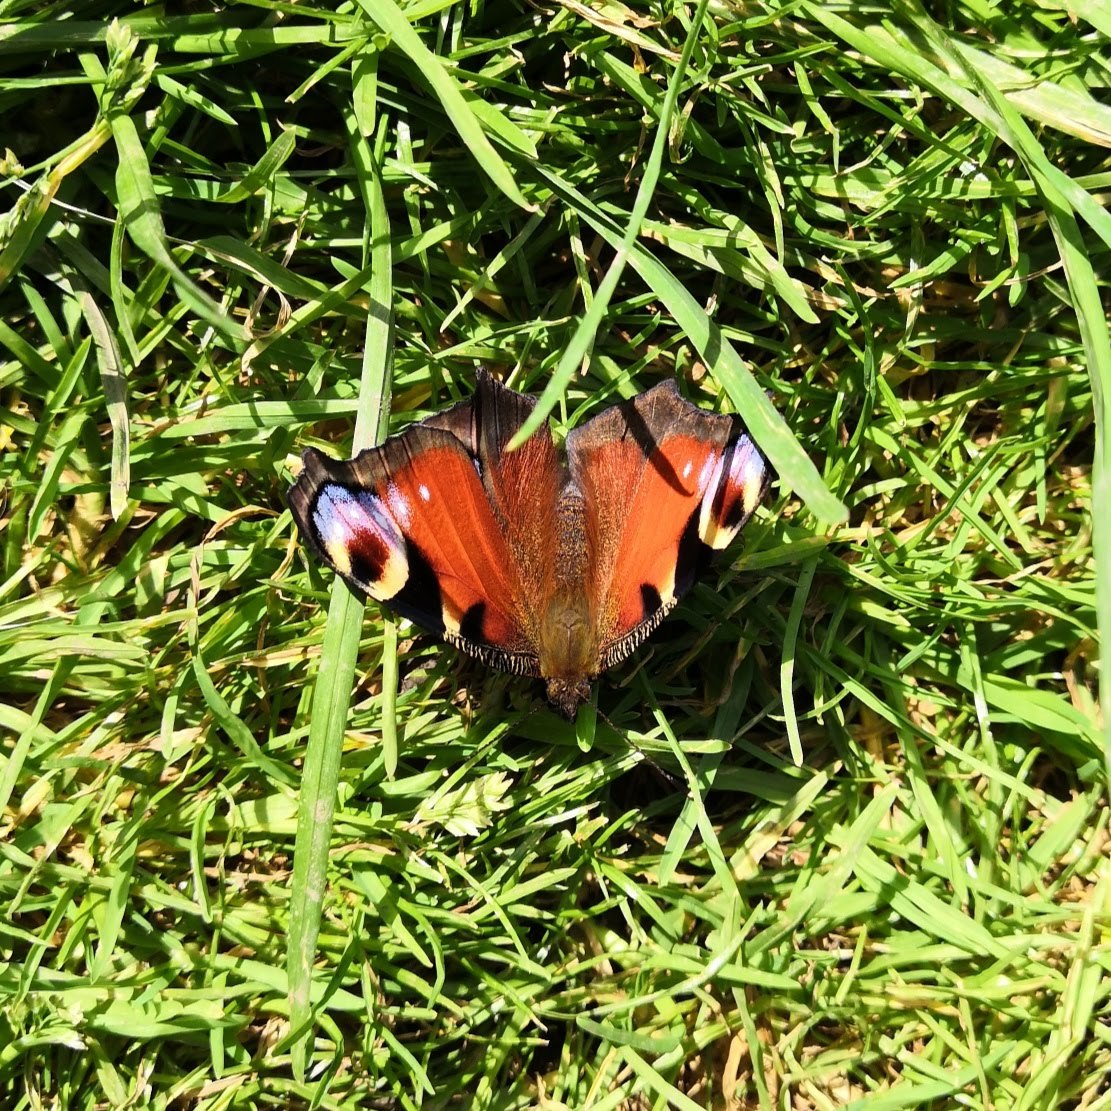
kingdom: Animalia
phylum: Arthropoda
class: Insecta
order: Lepidoptera
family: Nymphalidae
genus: Aglais
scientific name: Aglais io
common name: Peacock
